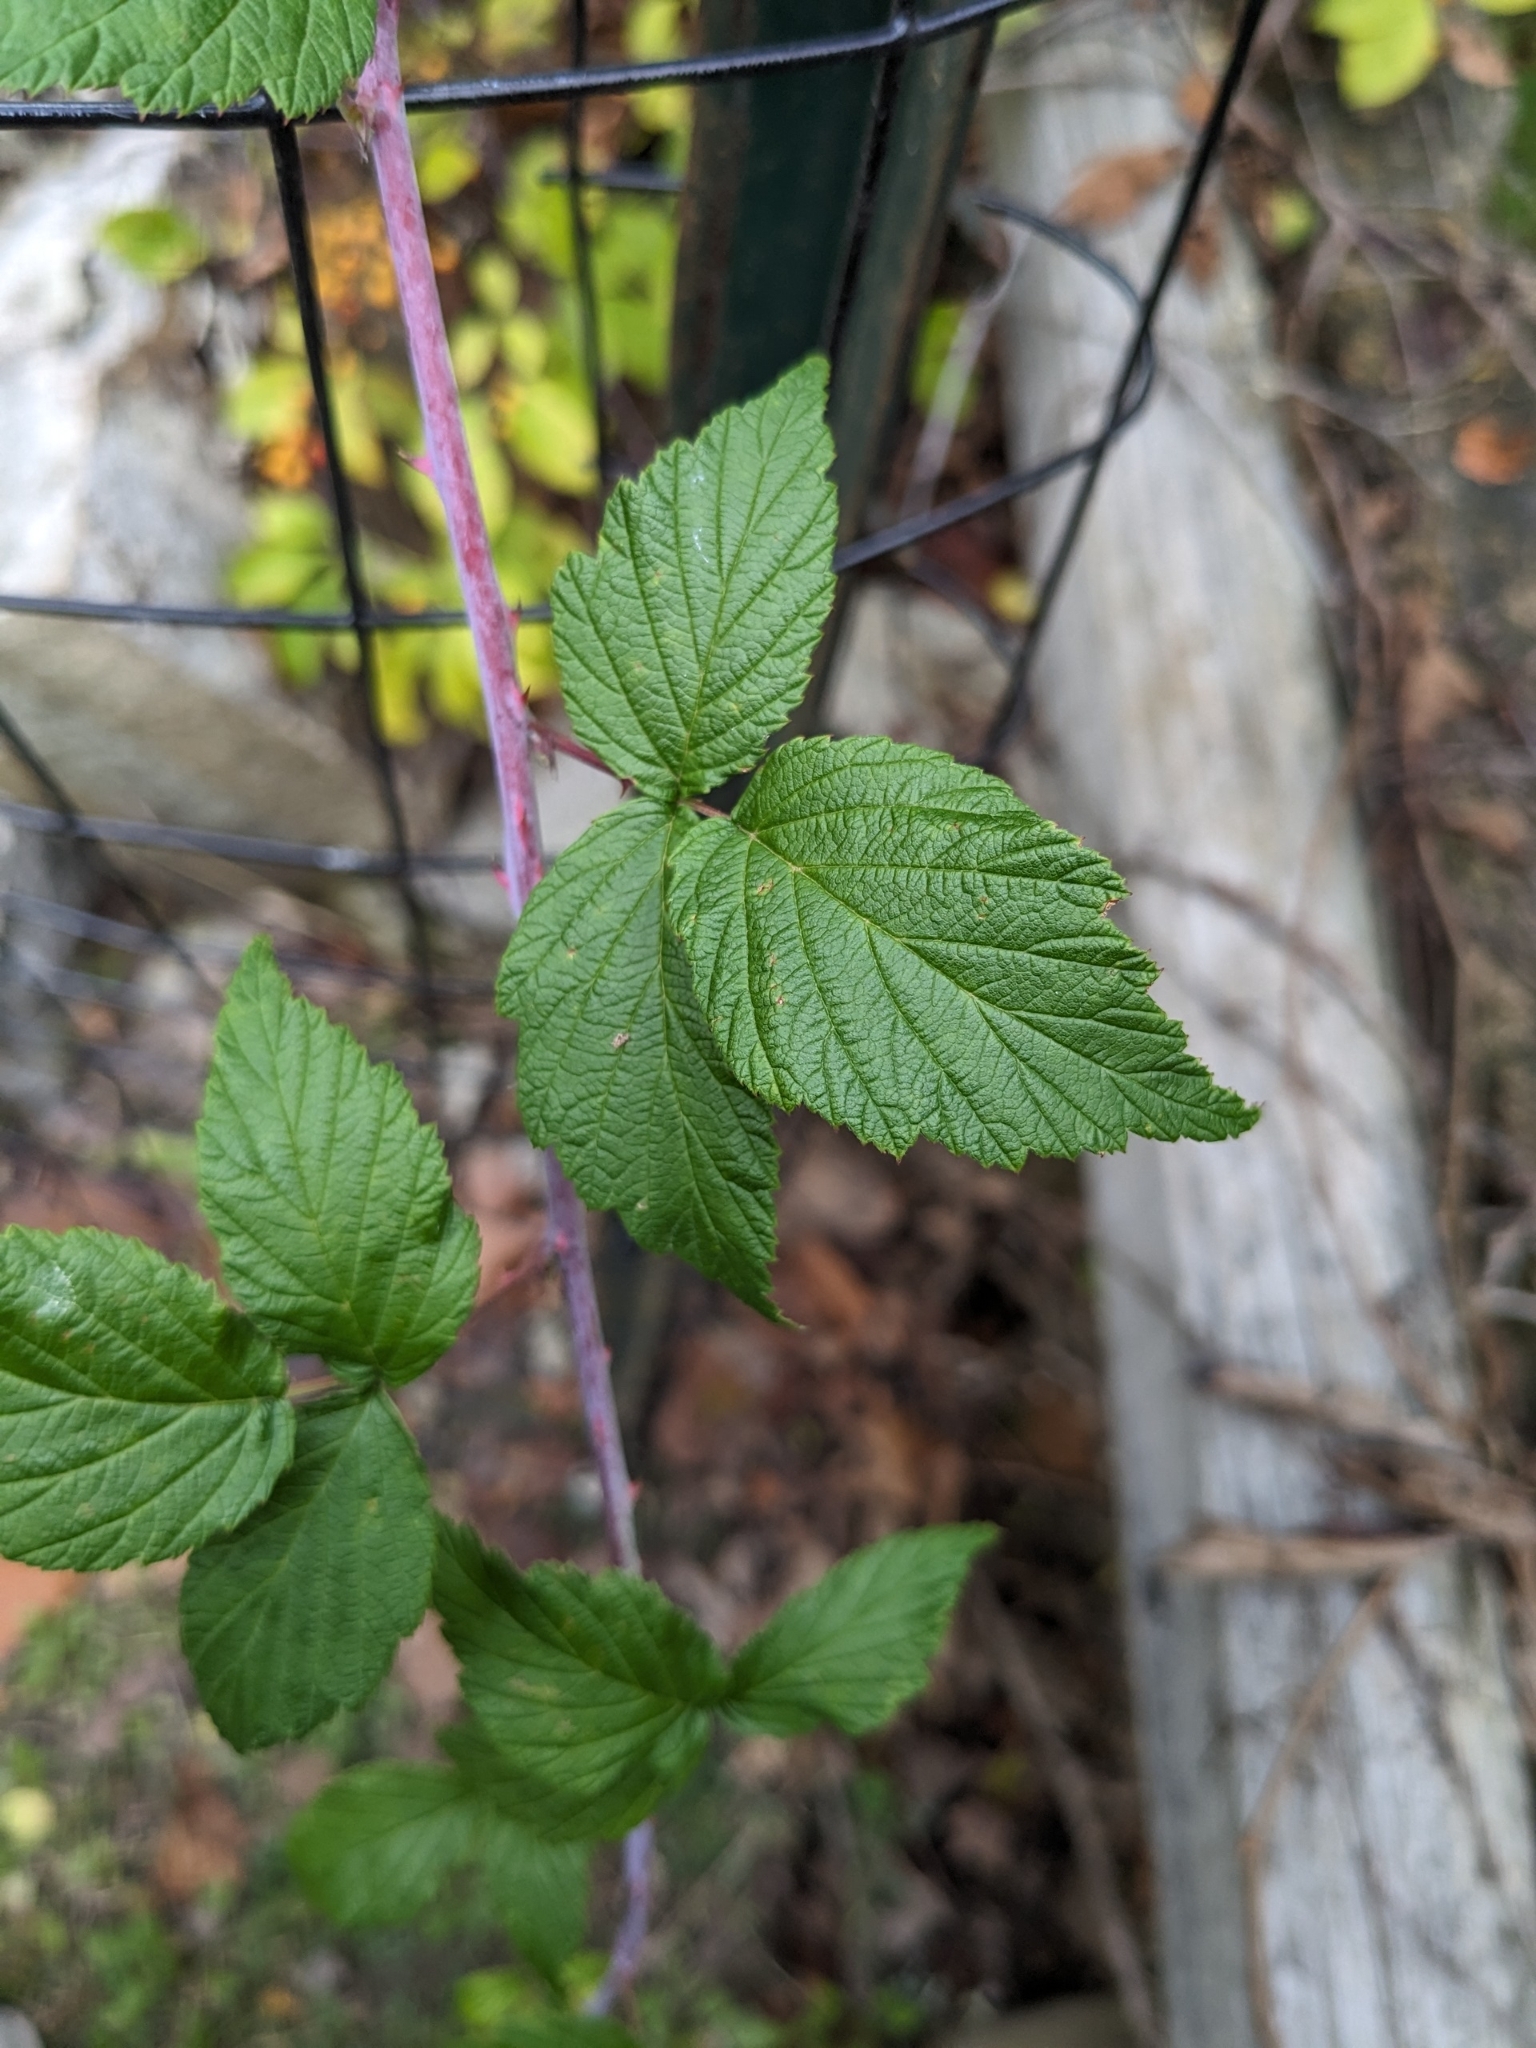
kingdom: Plantae
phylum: Tracheophyta
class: Magnoliopsida
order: Rosales
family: Rosaceae
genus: Rubus
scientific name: Rubus occidentalis
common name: Black raspberry
